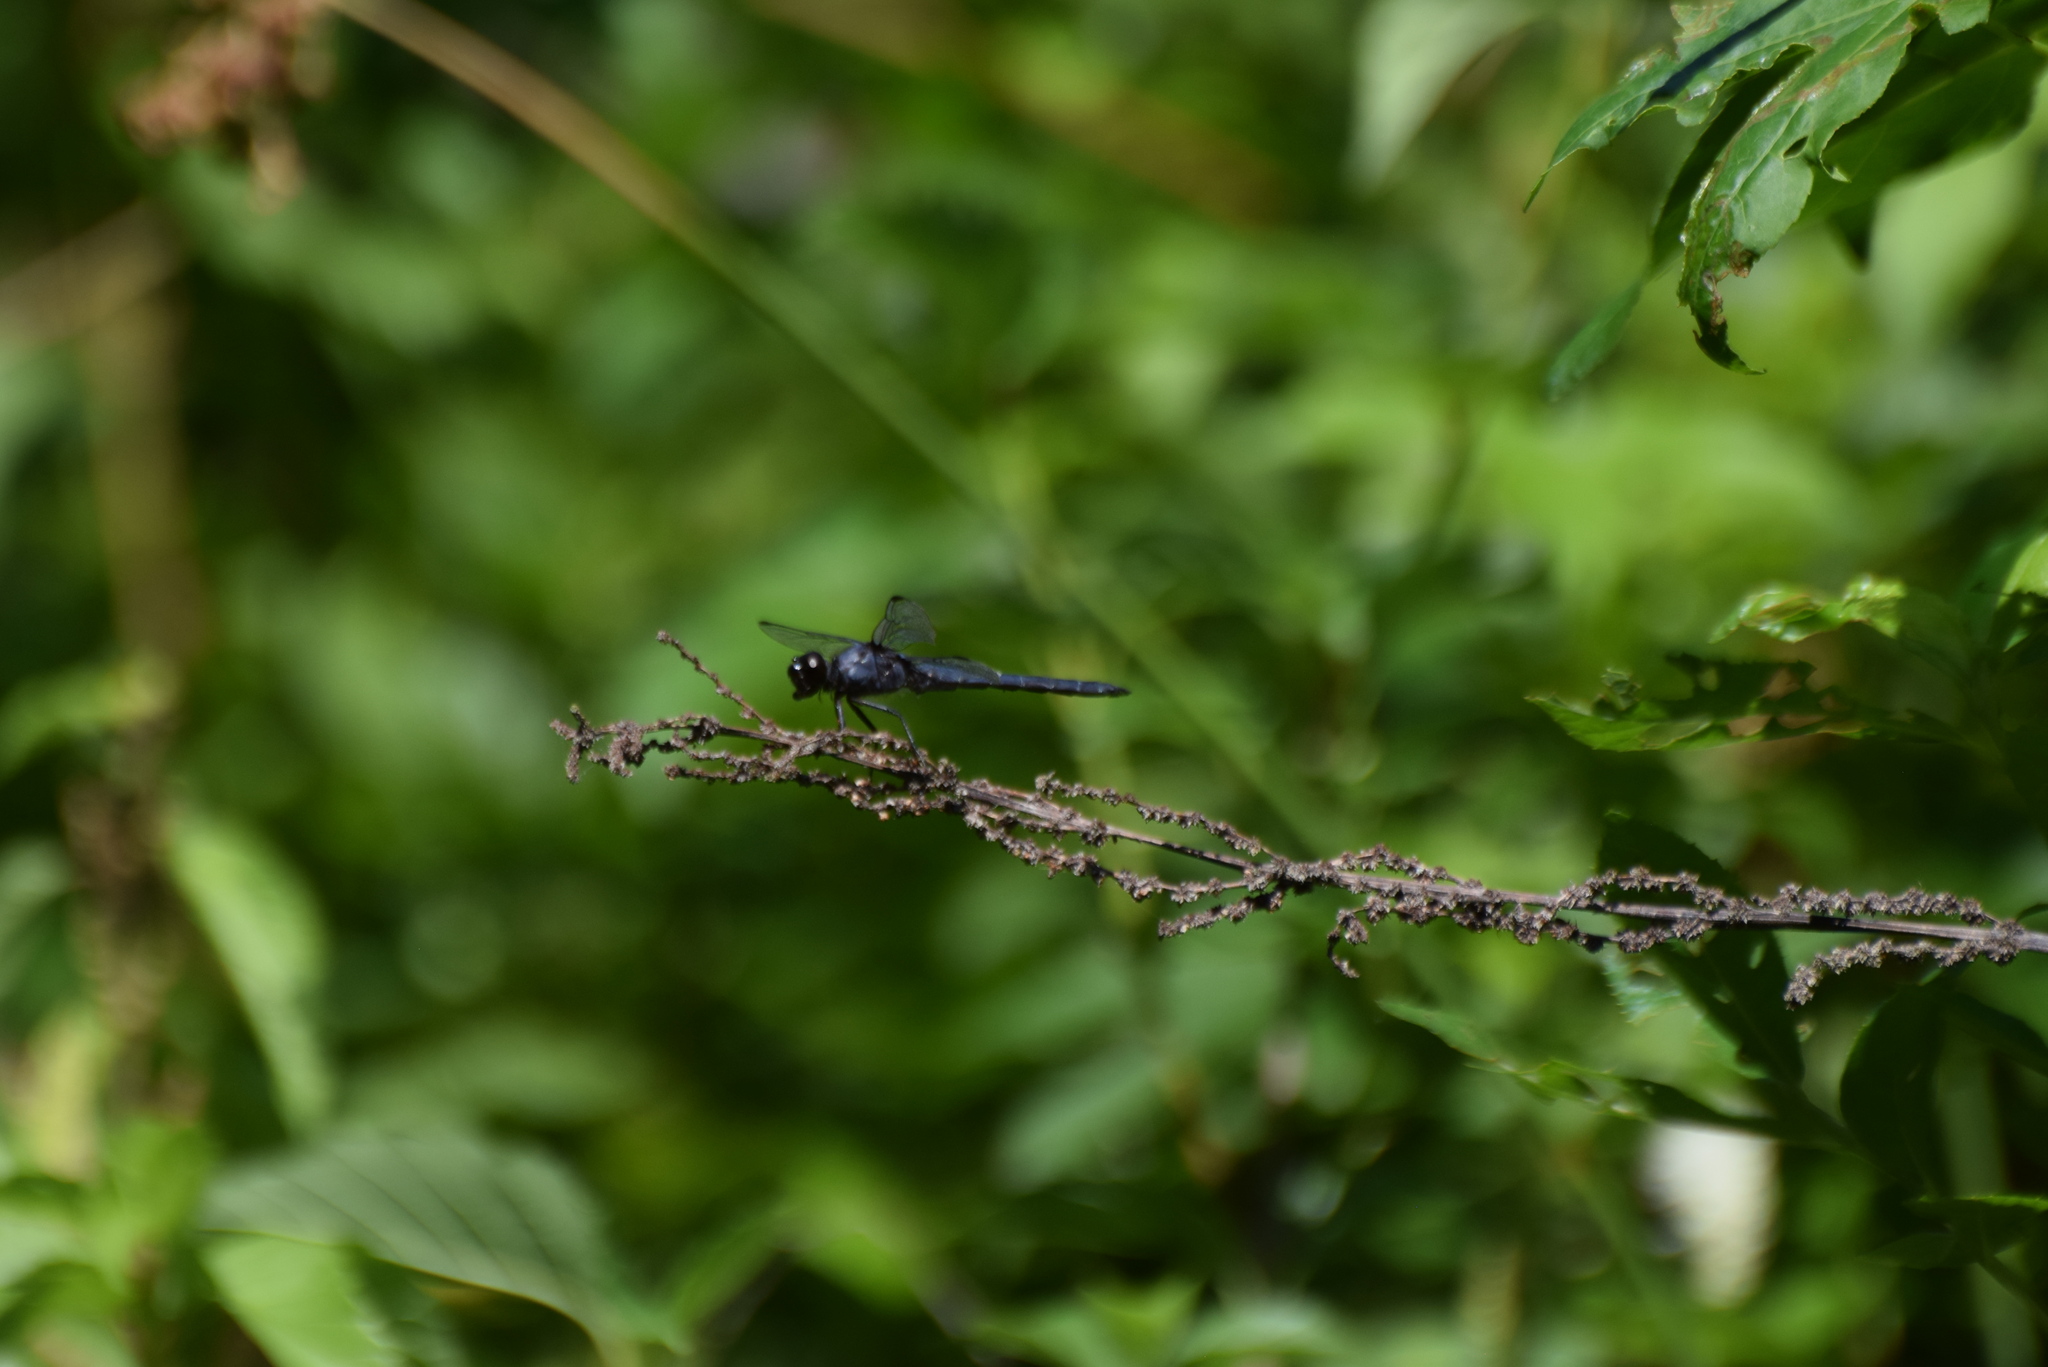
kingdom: Animalia
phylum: Arthropoda
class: Insecta
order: Odonata
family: Libellulidae
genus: Libellula
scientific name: Libellula incesta
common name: Slaty skimmer
